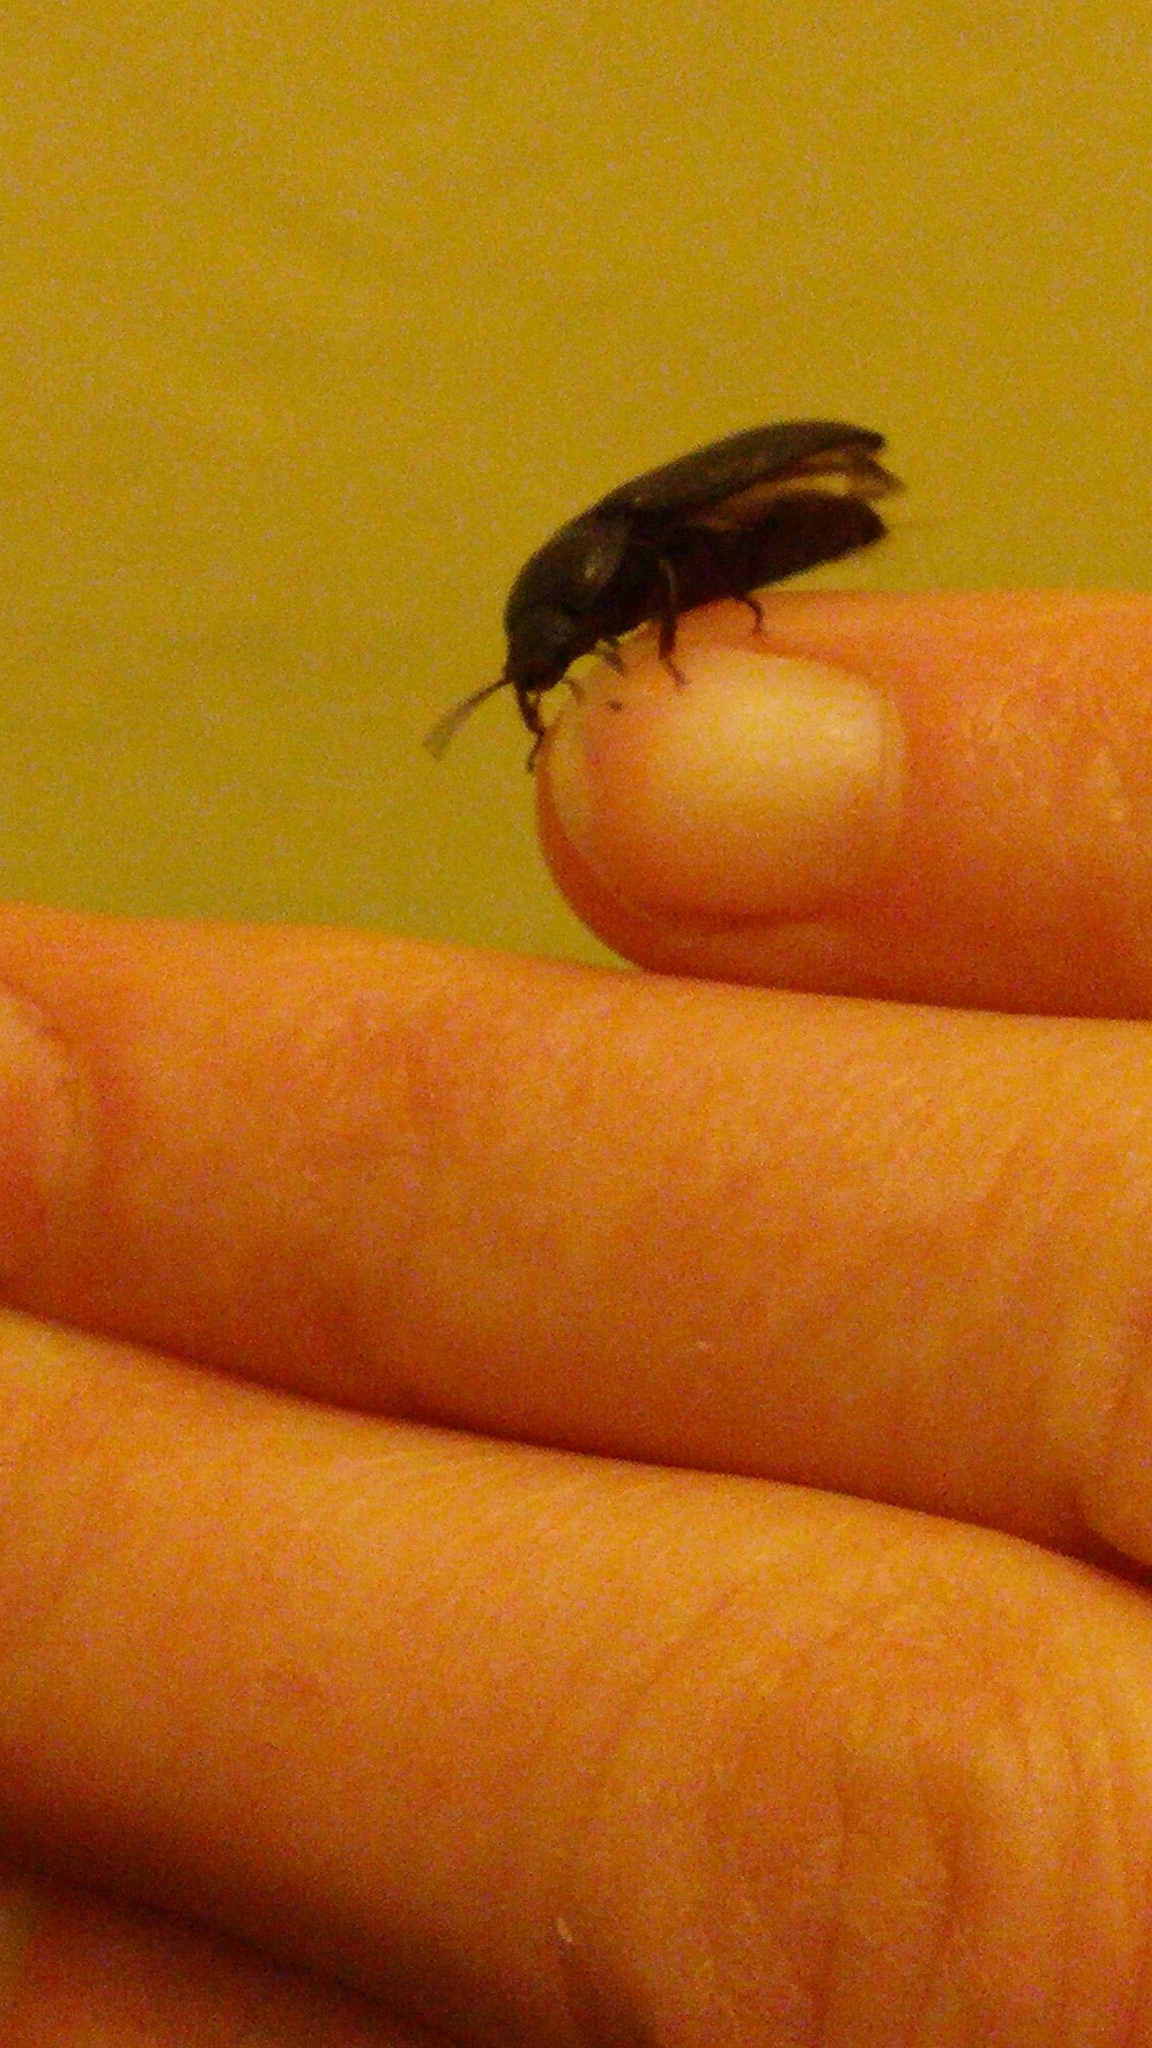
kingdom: Animalia
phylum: Arthropoda
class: Insecta
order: Coleoptera
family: Tenebrionidae
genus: Tenebrio
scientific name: Tenebrio molitor
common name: Hardback beetle
